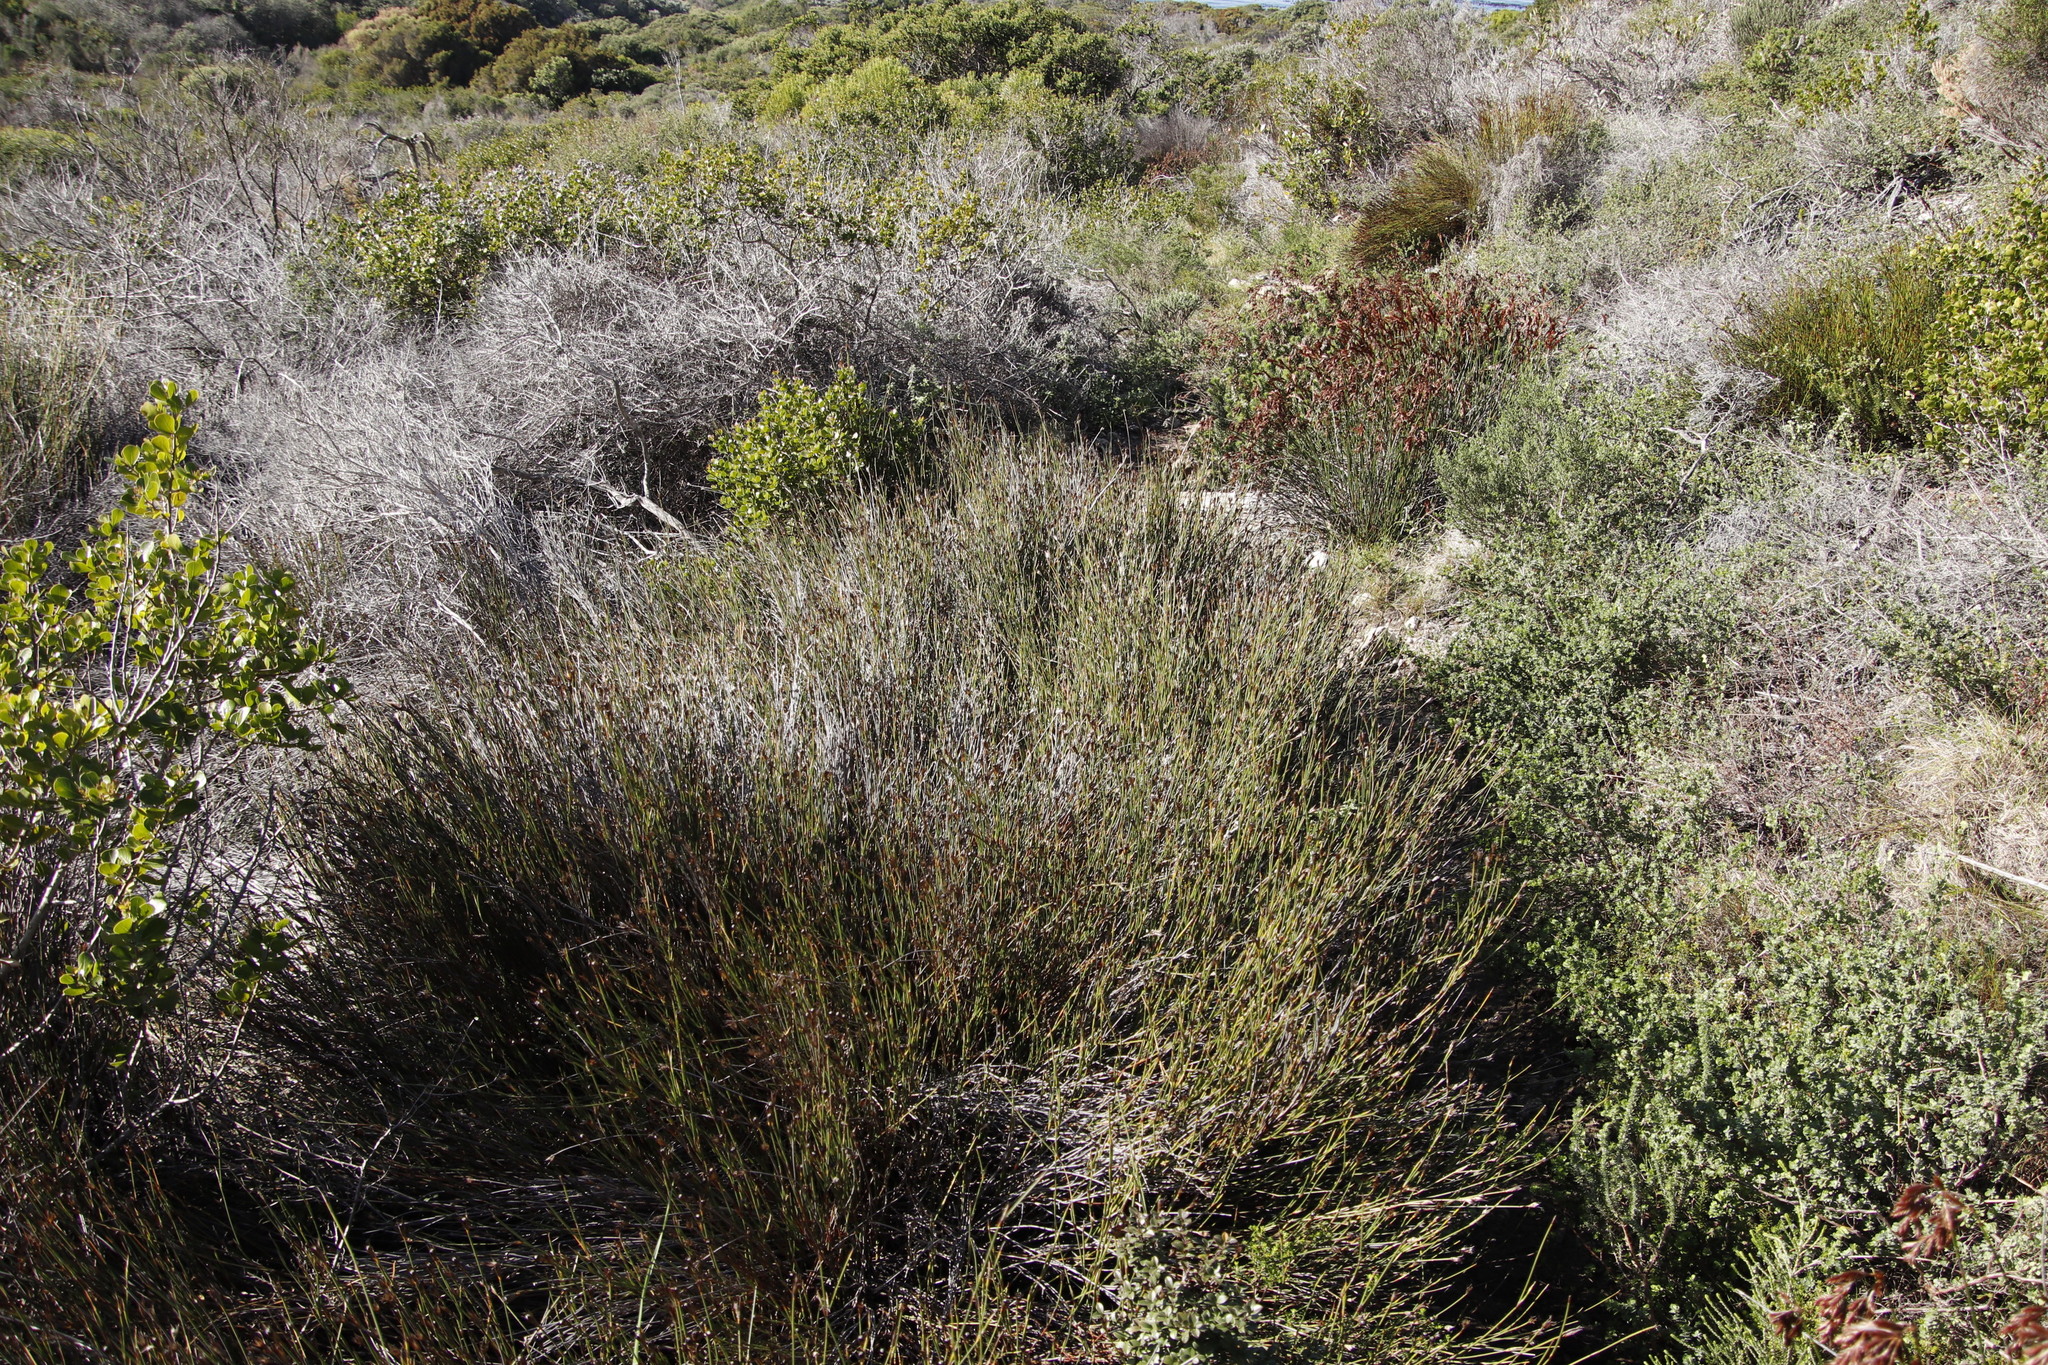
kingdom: Plantae
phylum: Tracheophyta
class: Liliopsida
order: Poales
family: Restionaceae
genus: Willdenowia
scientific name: Willdenowia teres
